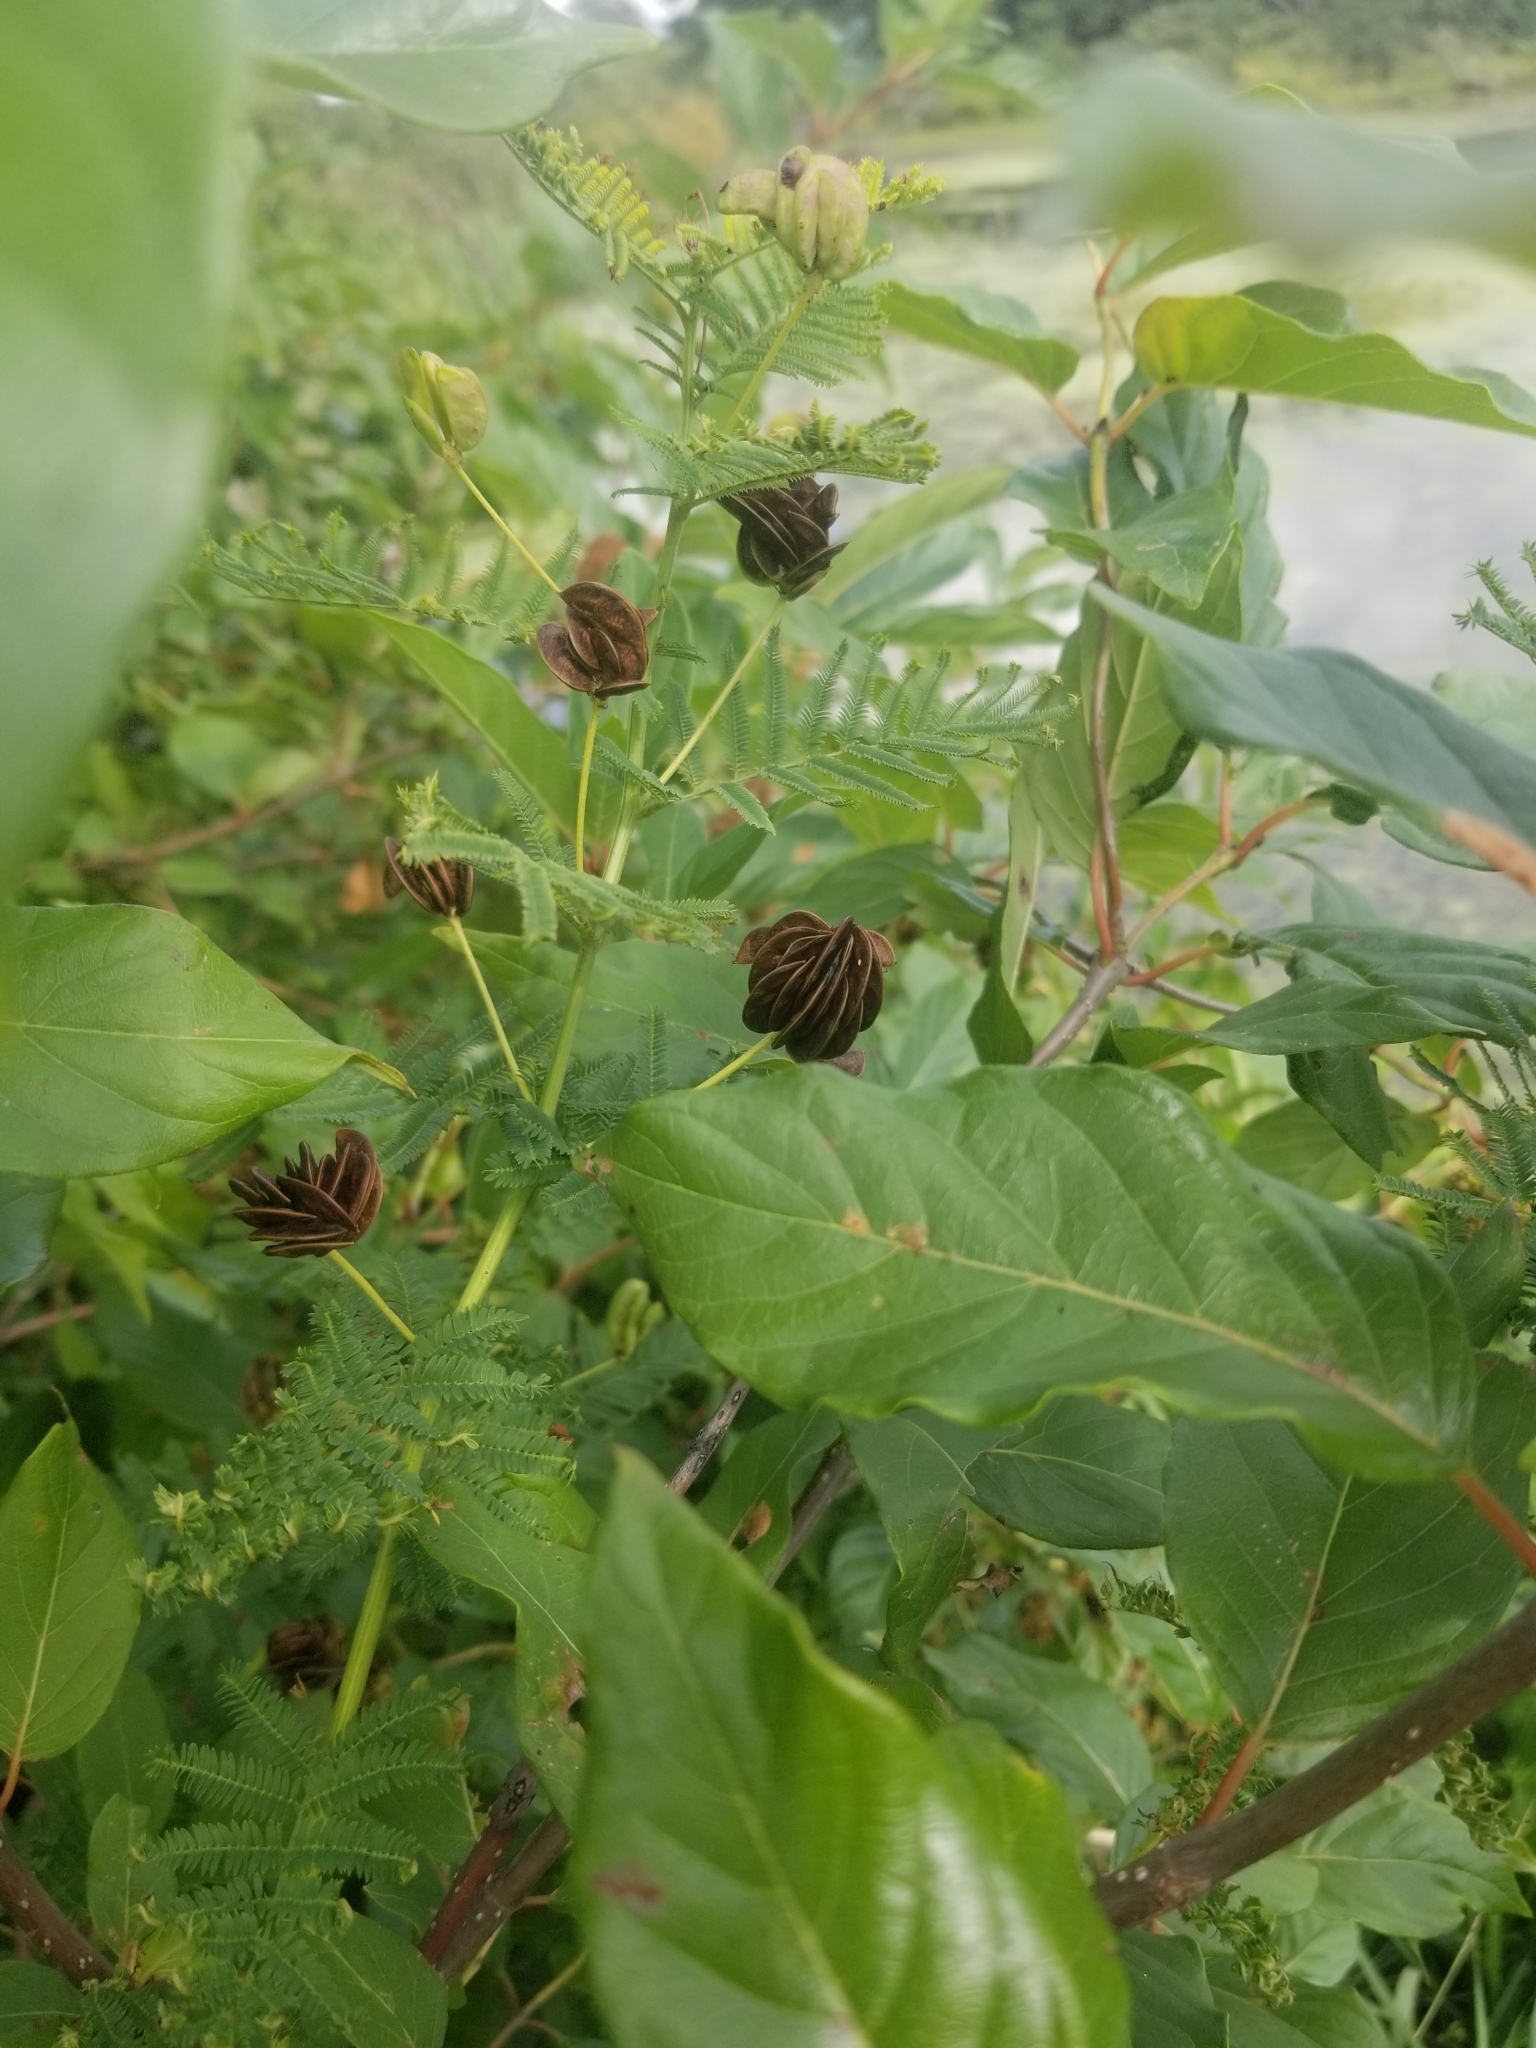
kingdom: Plantae
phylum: Tracheophyta
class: Magnoliopsida
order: Fabales
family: Fabaceae
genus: Desmanthus
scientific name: Desmanthus illinoensis
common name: Illinois bundle-flower
